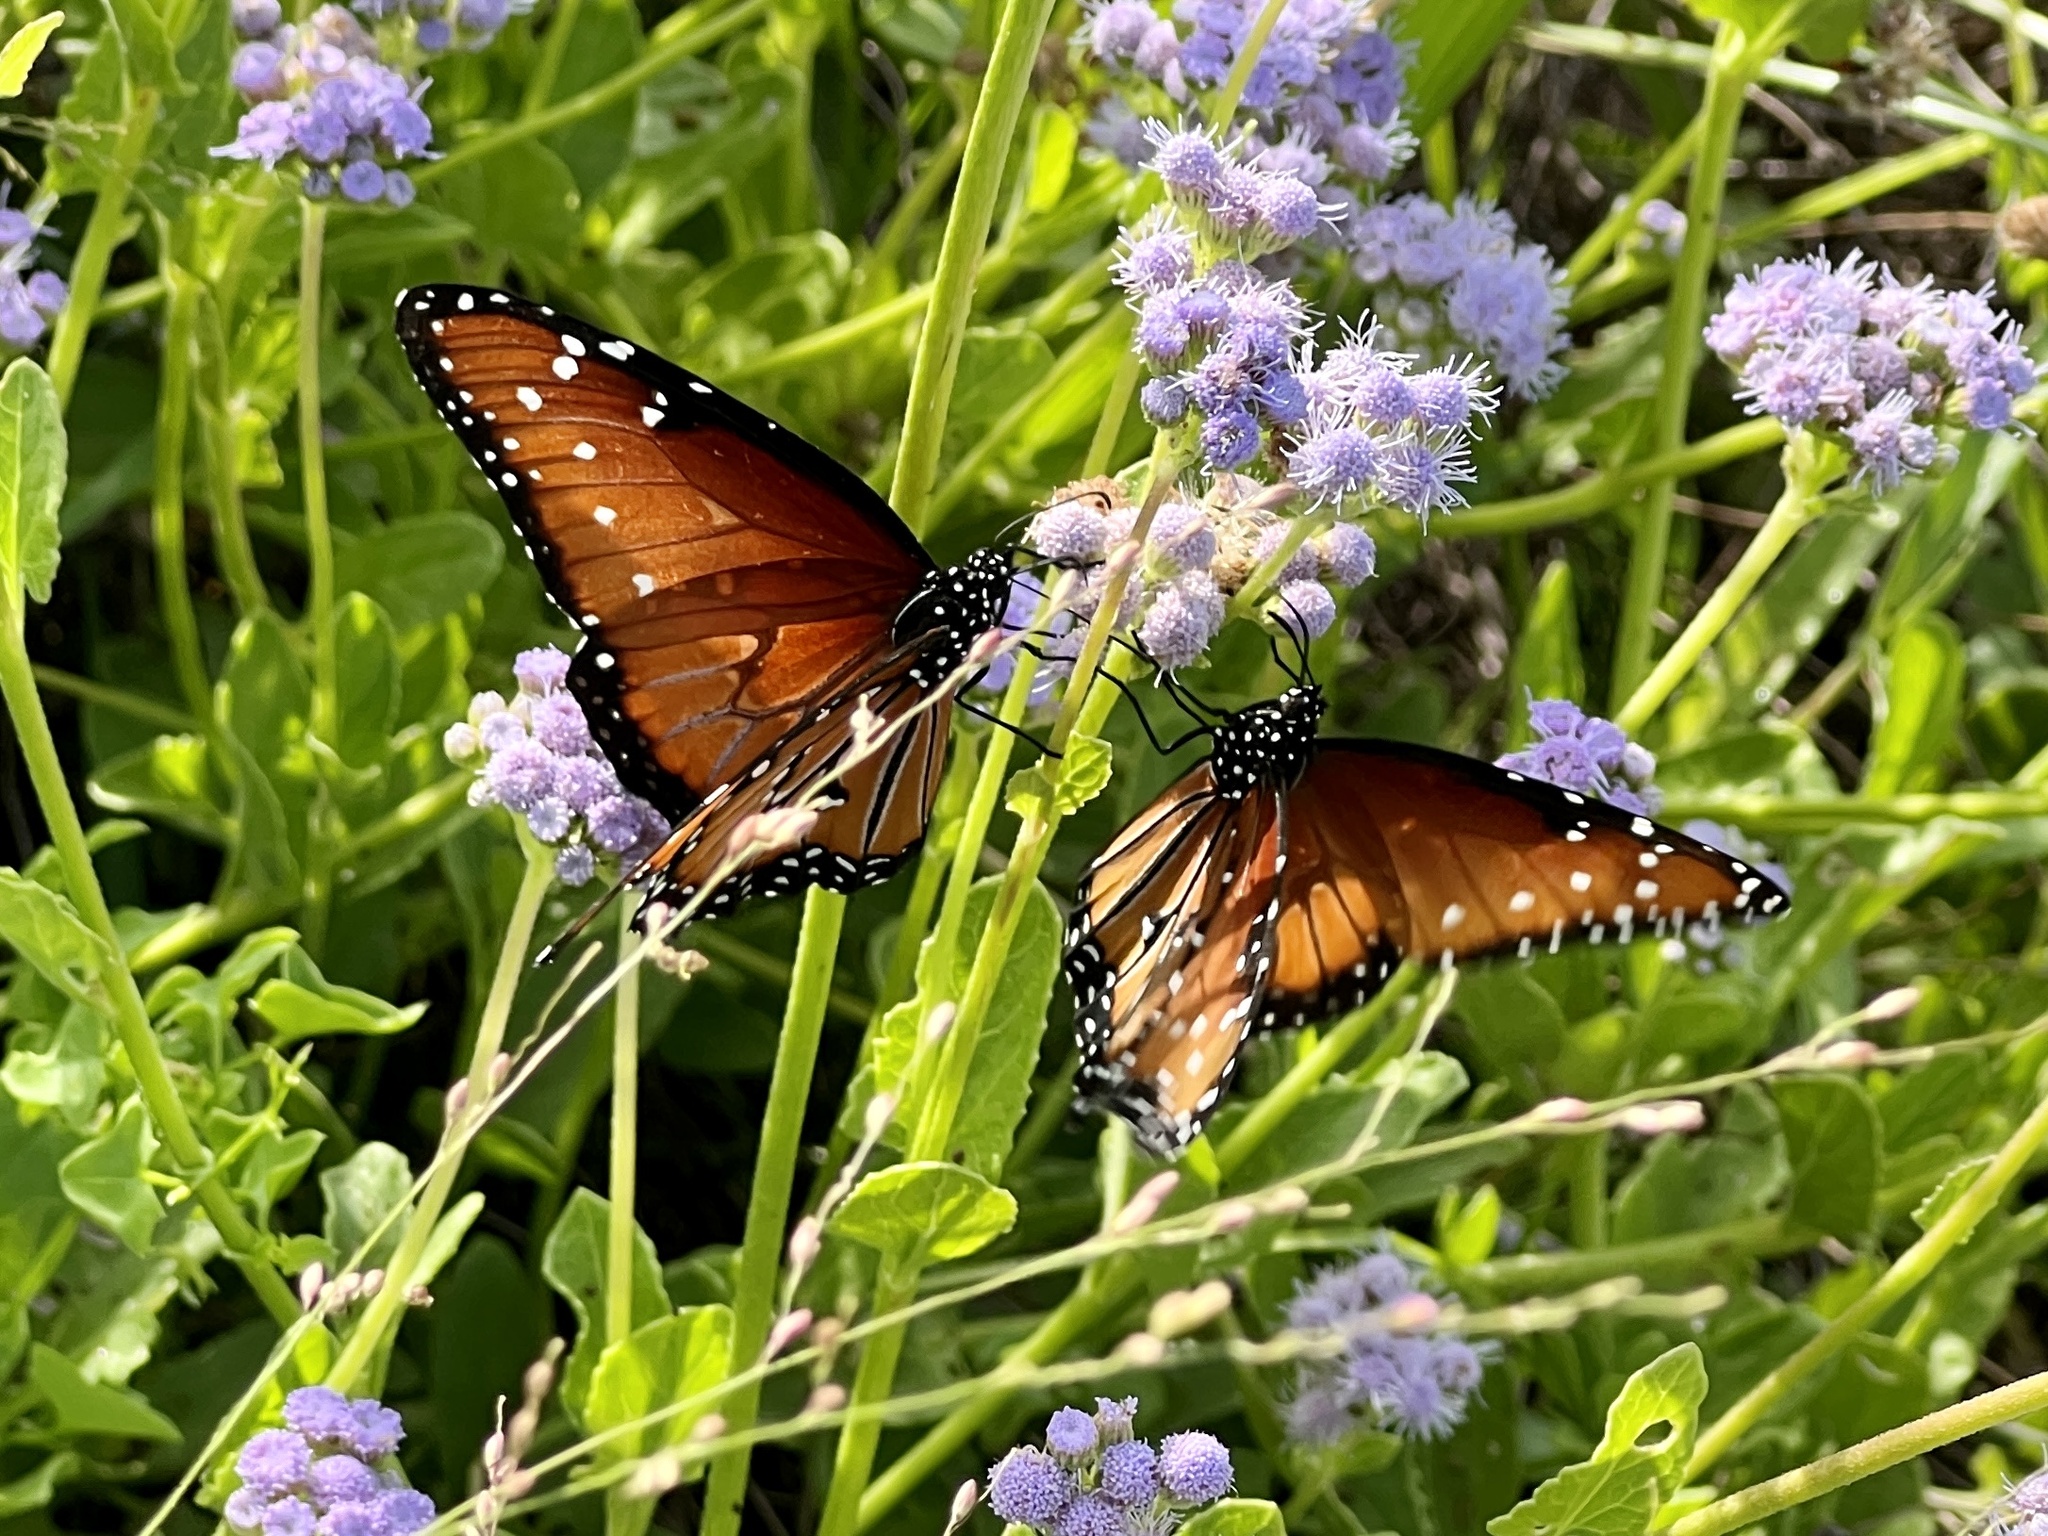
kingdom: Animalia
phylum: Arthropoda
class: Insecta
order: Lepidoptera
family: Nymphalidae
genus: Danaus
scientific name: Danaus gilippus
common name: Queen
